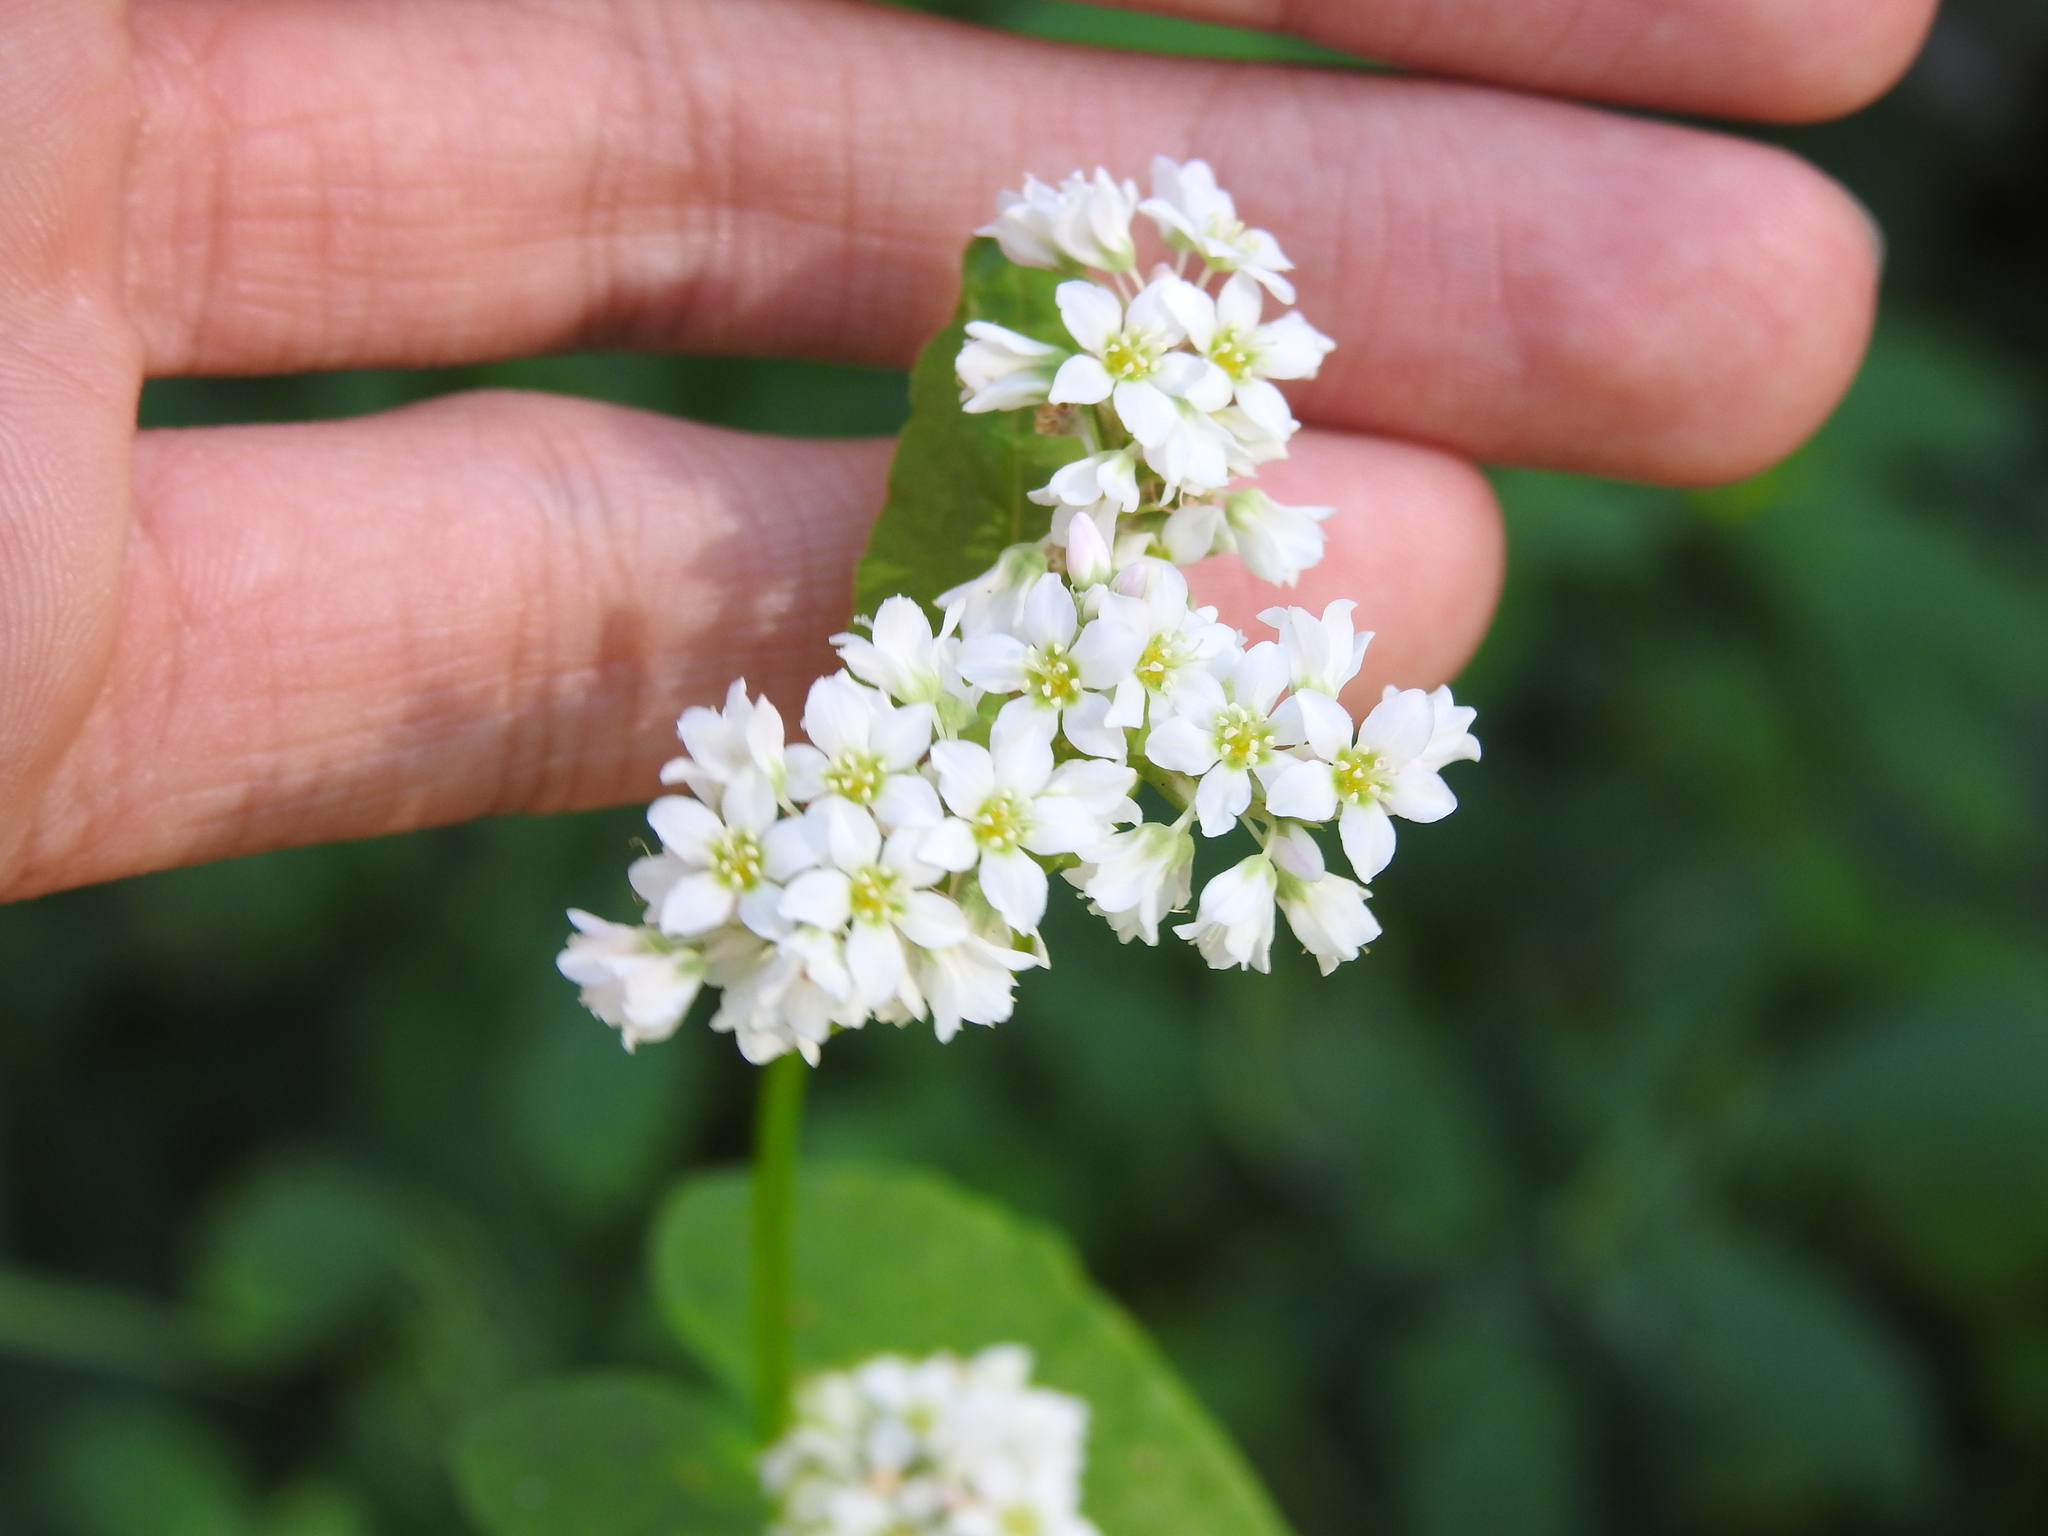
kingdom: Plantae
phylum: Tracheophyta
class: Magnoliopsida
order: Caryophyllales
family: Polygonaceae
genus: Fagopyrum
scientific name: Fagopyrum esculentum
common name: Buckwheat
